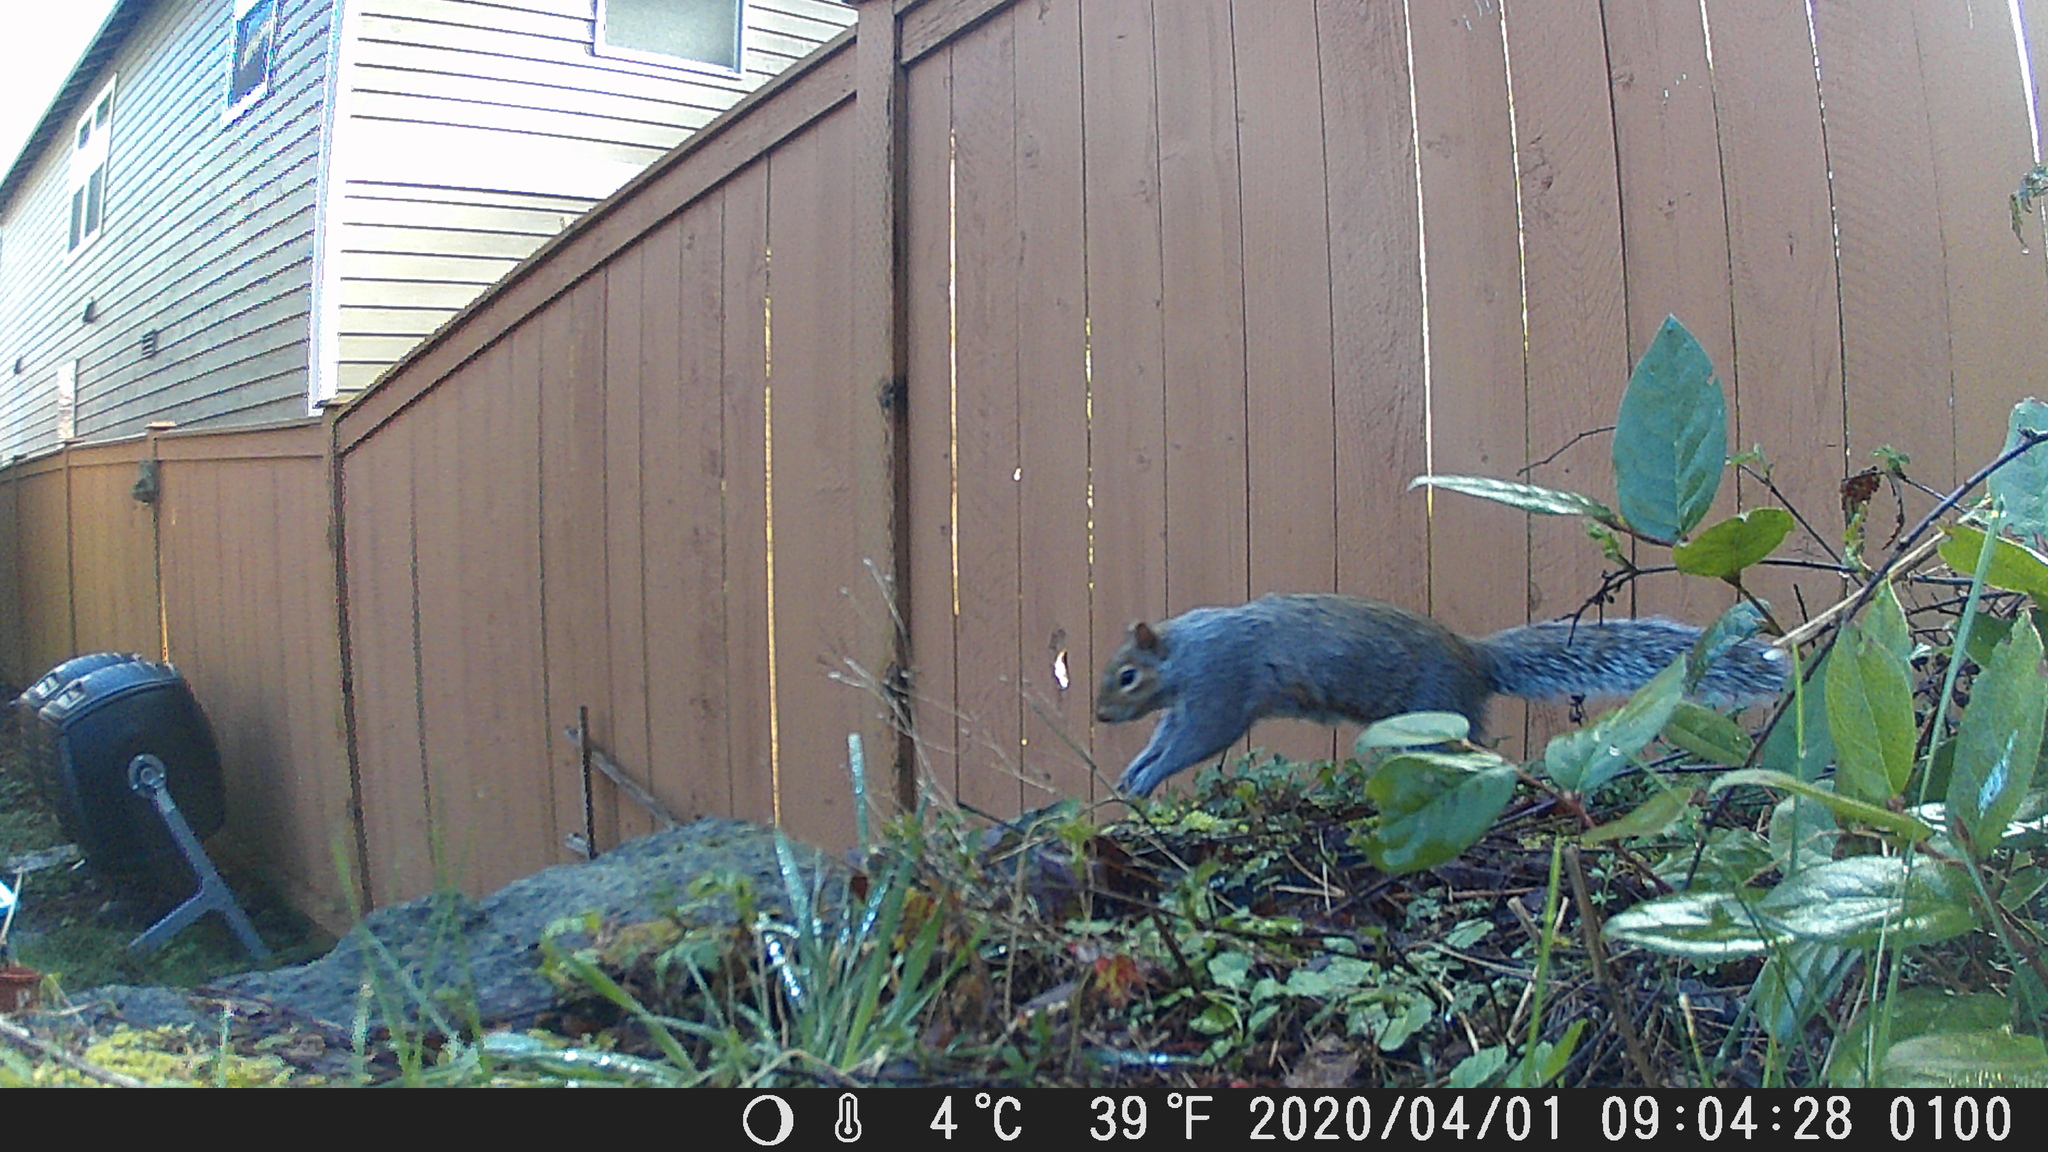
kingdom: Animalia
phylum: Chordata
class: Mammalia
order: Rodentia
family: Sciuridae
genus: Tamiasciurus
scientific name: Tamiasciurus douglasii
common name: Douglas's squirrel
